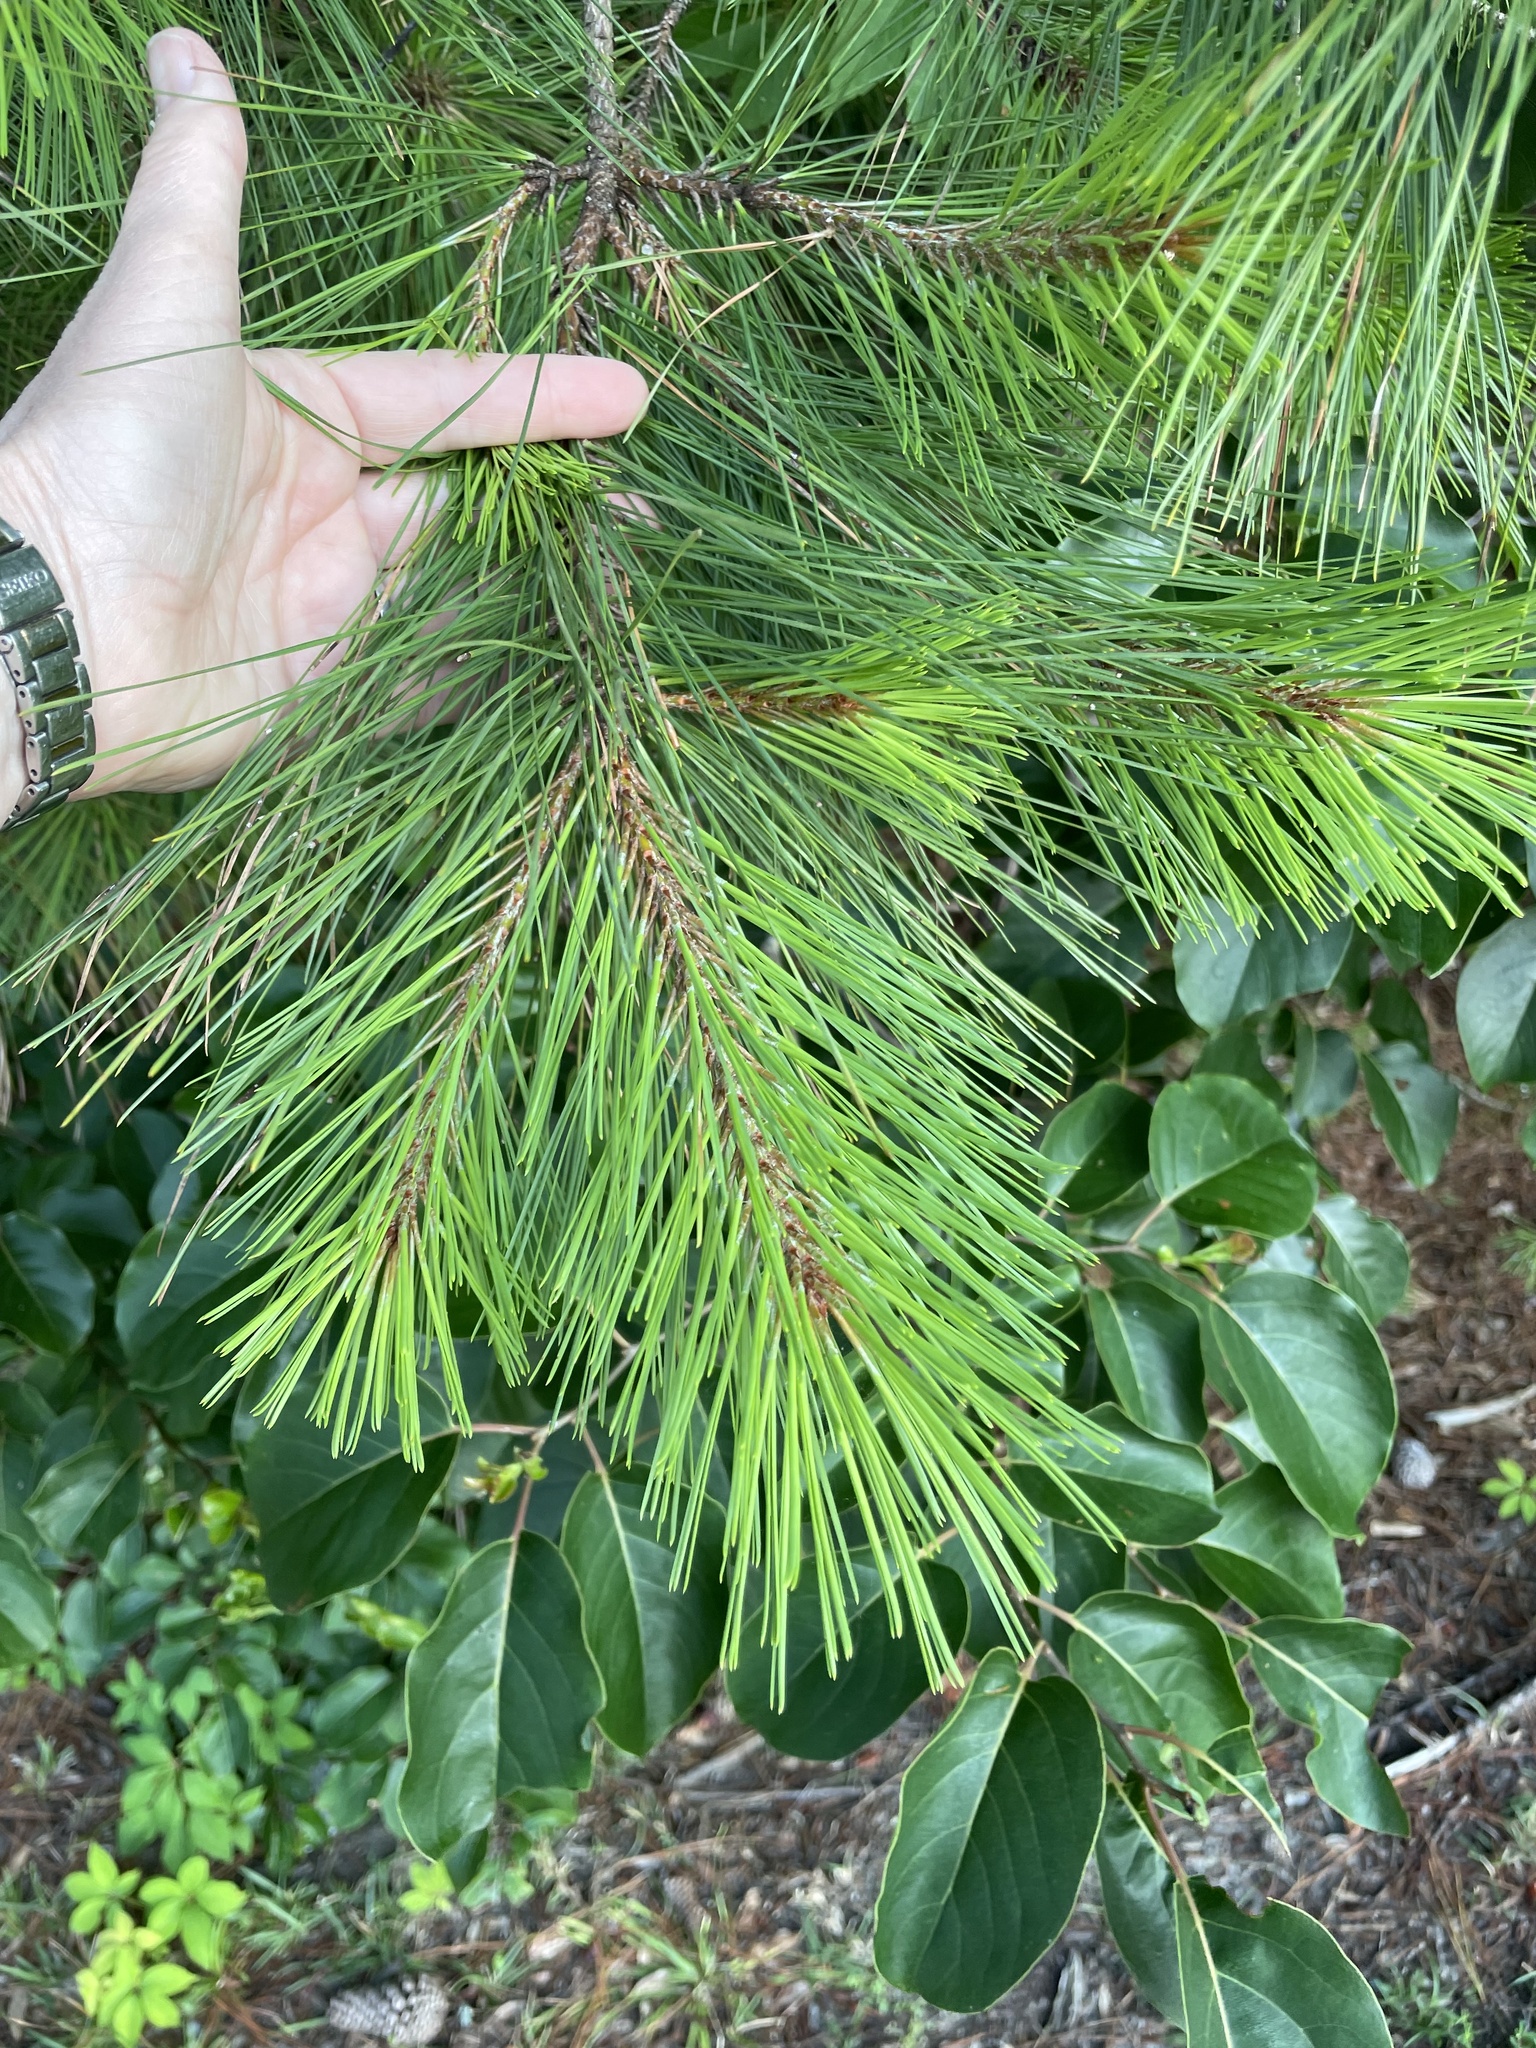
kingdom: Plantae
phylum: Tracheophyta
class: Pinopsida
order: Pinales
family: Pinaceae
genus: Pinus
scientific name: Pinus taeda
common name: Loblolly pine
